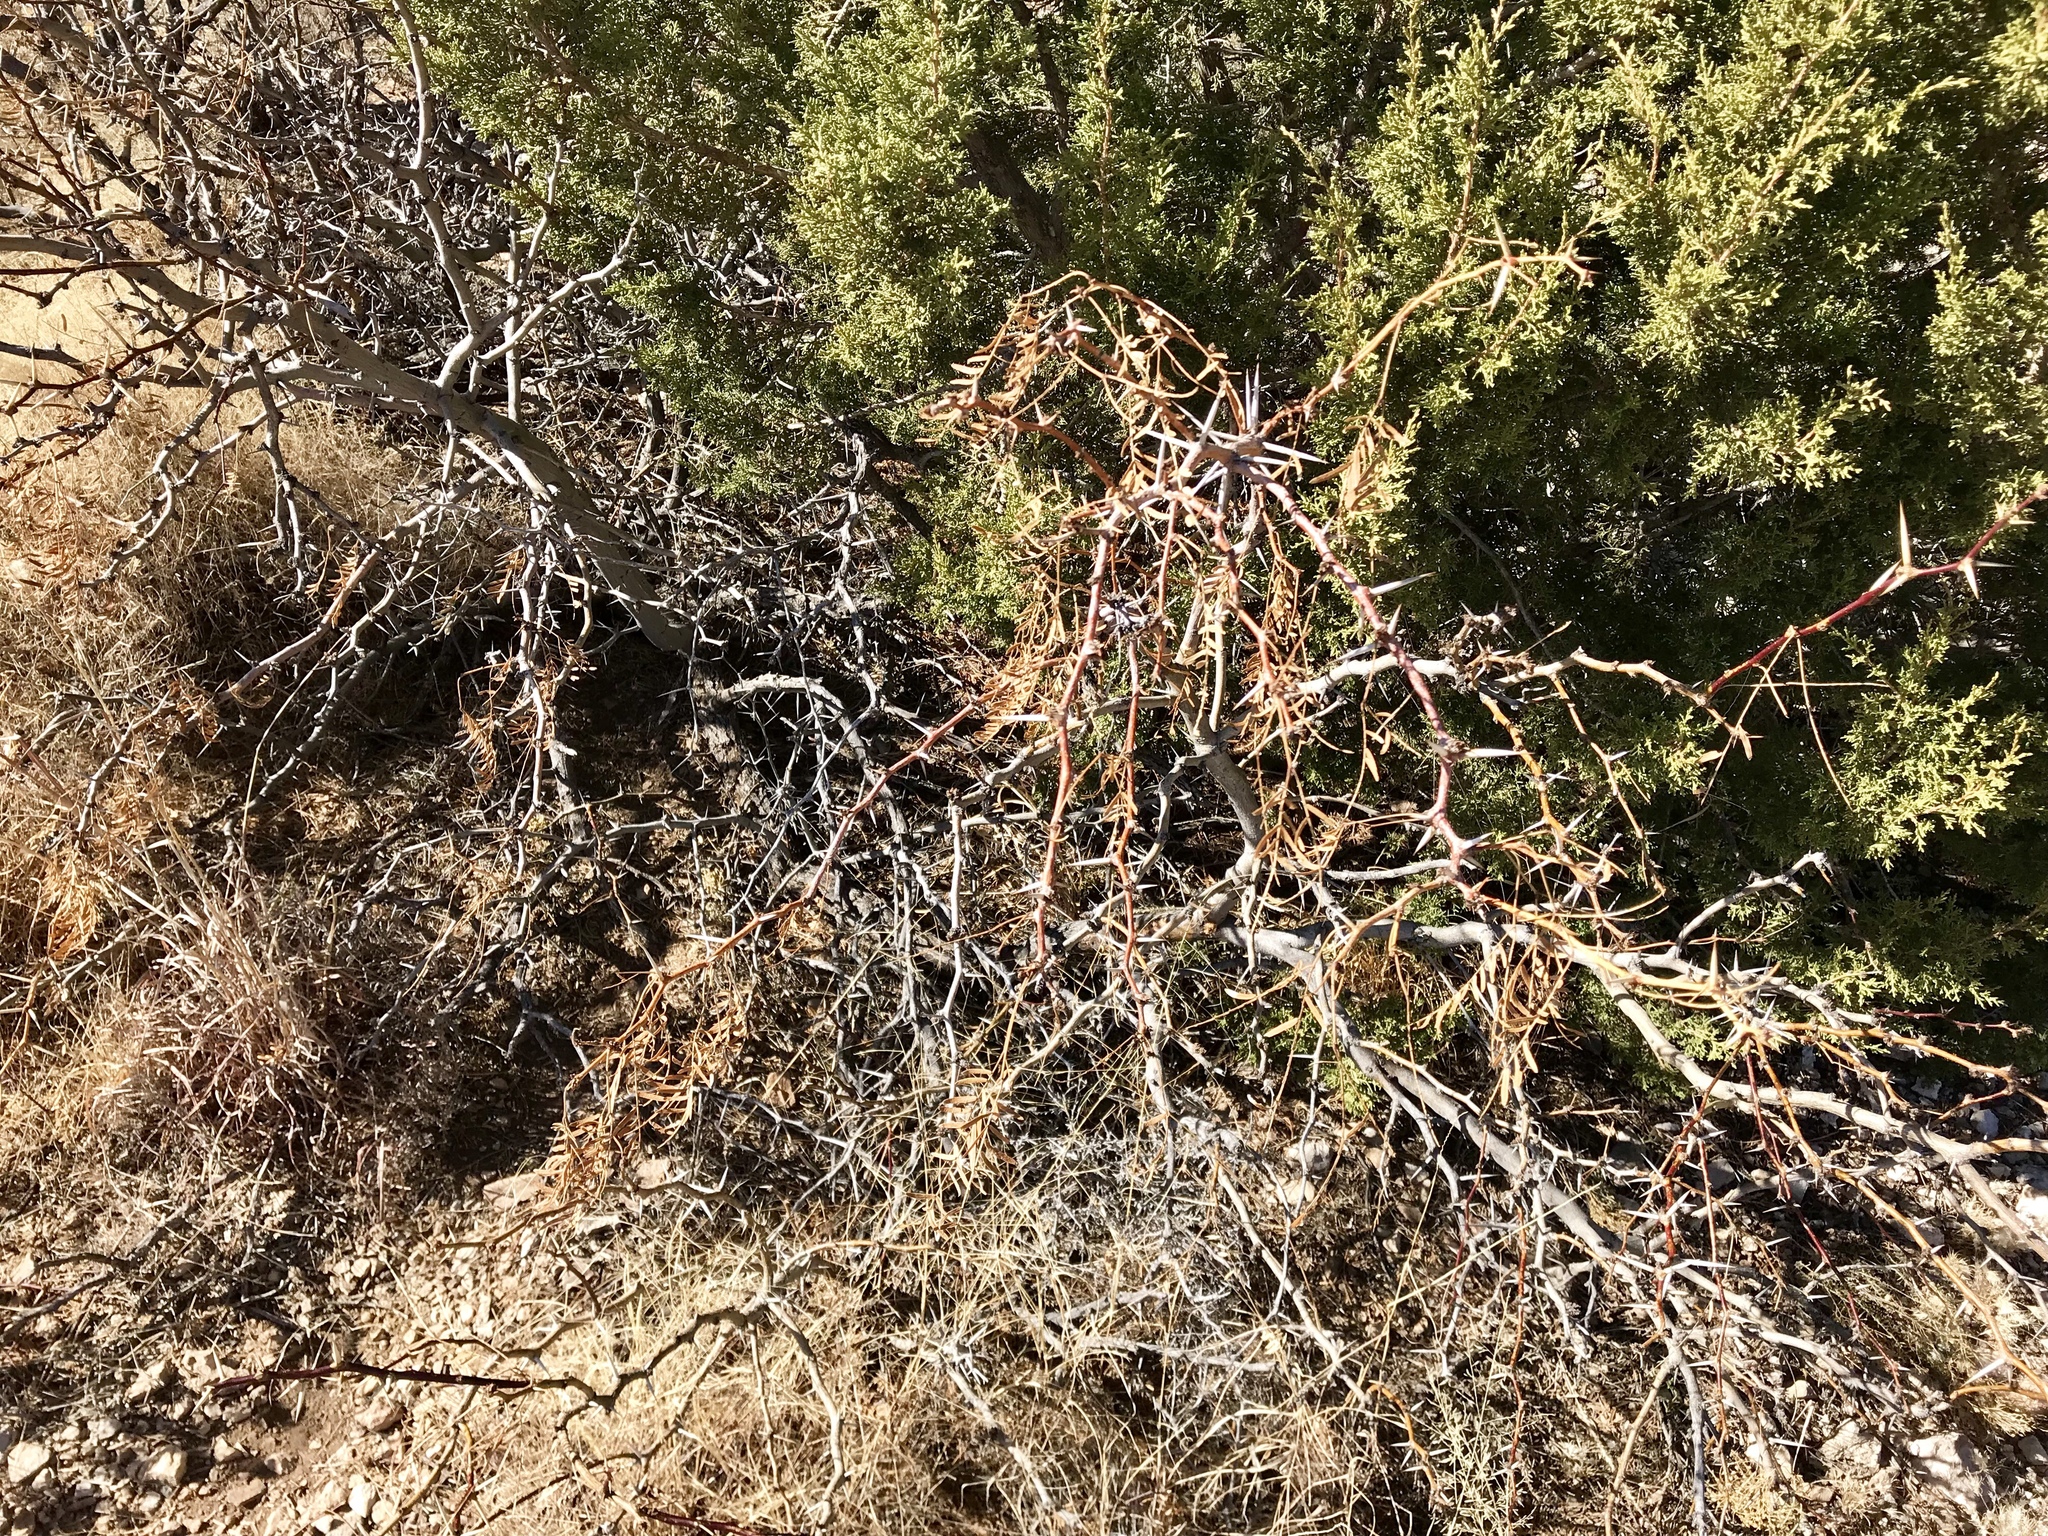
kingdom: Plantae
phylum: Tracheophyta
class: Magnoliopsida
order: Fabales
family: Fabaceae
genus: Prosopis
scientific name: Prosopis glandulosa
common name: Honey mesquite
